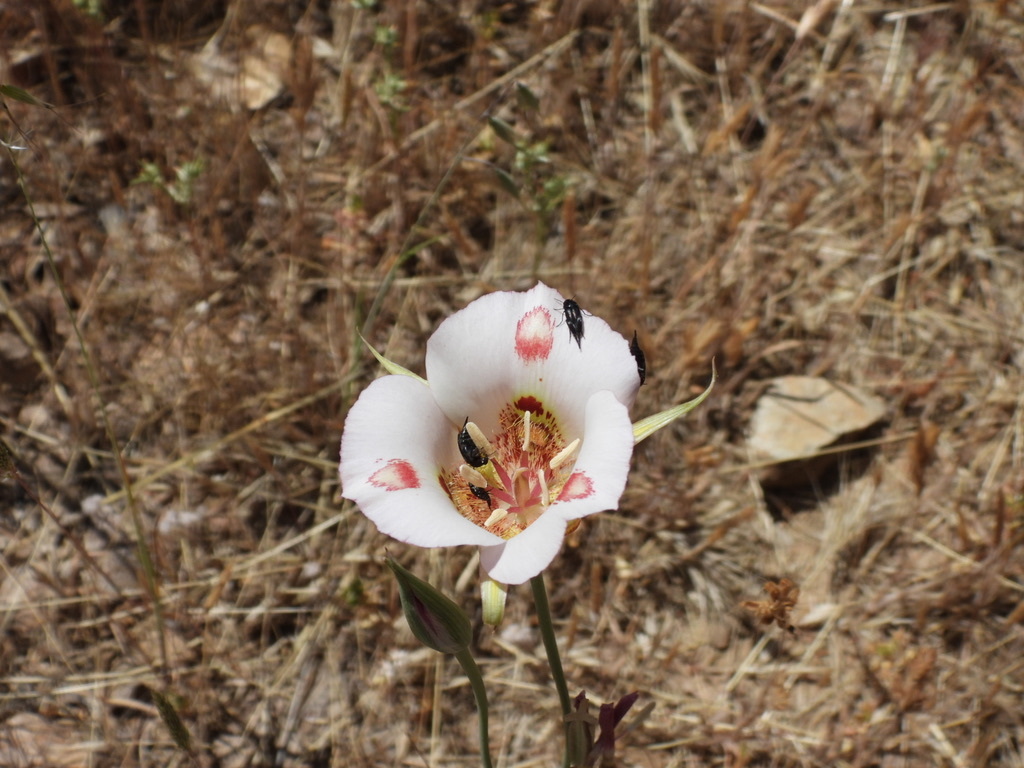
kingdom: Plantae
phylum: Tracheophyta
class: Liliopsida
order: Liliales
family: Liliaceae
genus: Calochortus
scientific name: Calochortus venustus
